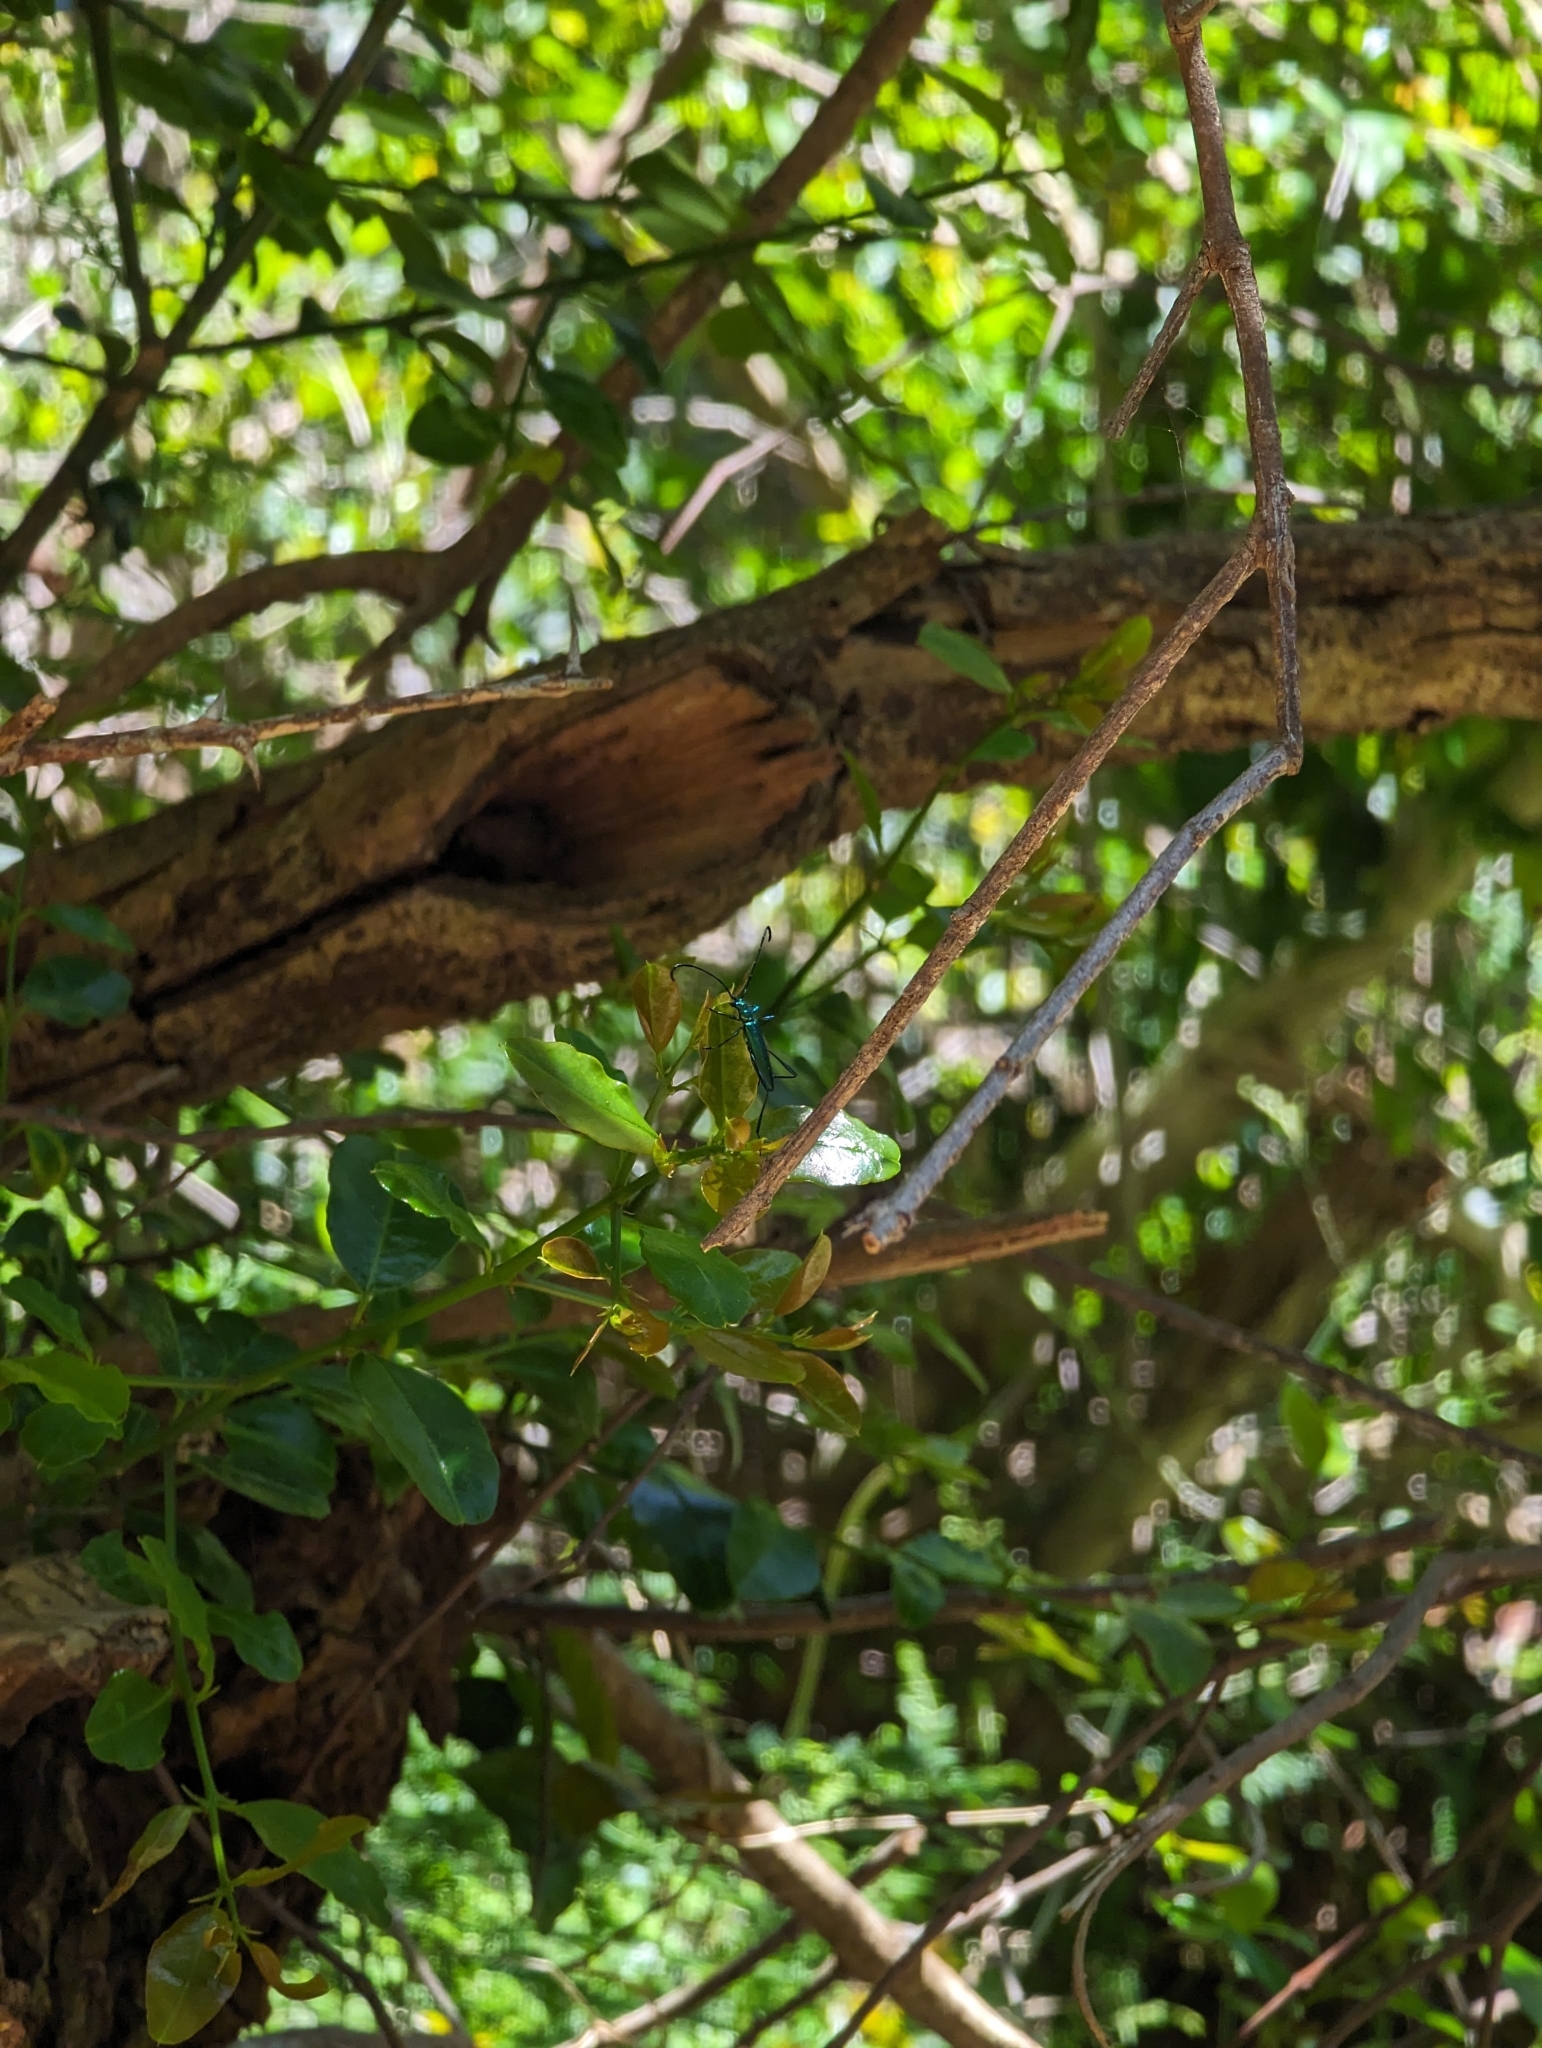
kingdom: Animalia
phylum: Arthropoda
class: Insecta
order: Coleoptera
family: Cerambycidae
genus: Promeces
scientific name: Promeces longipes
